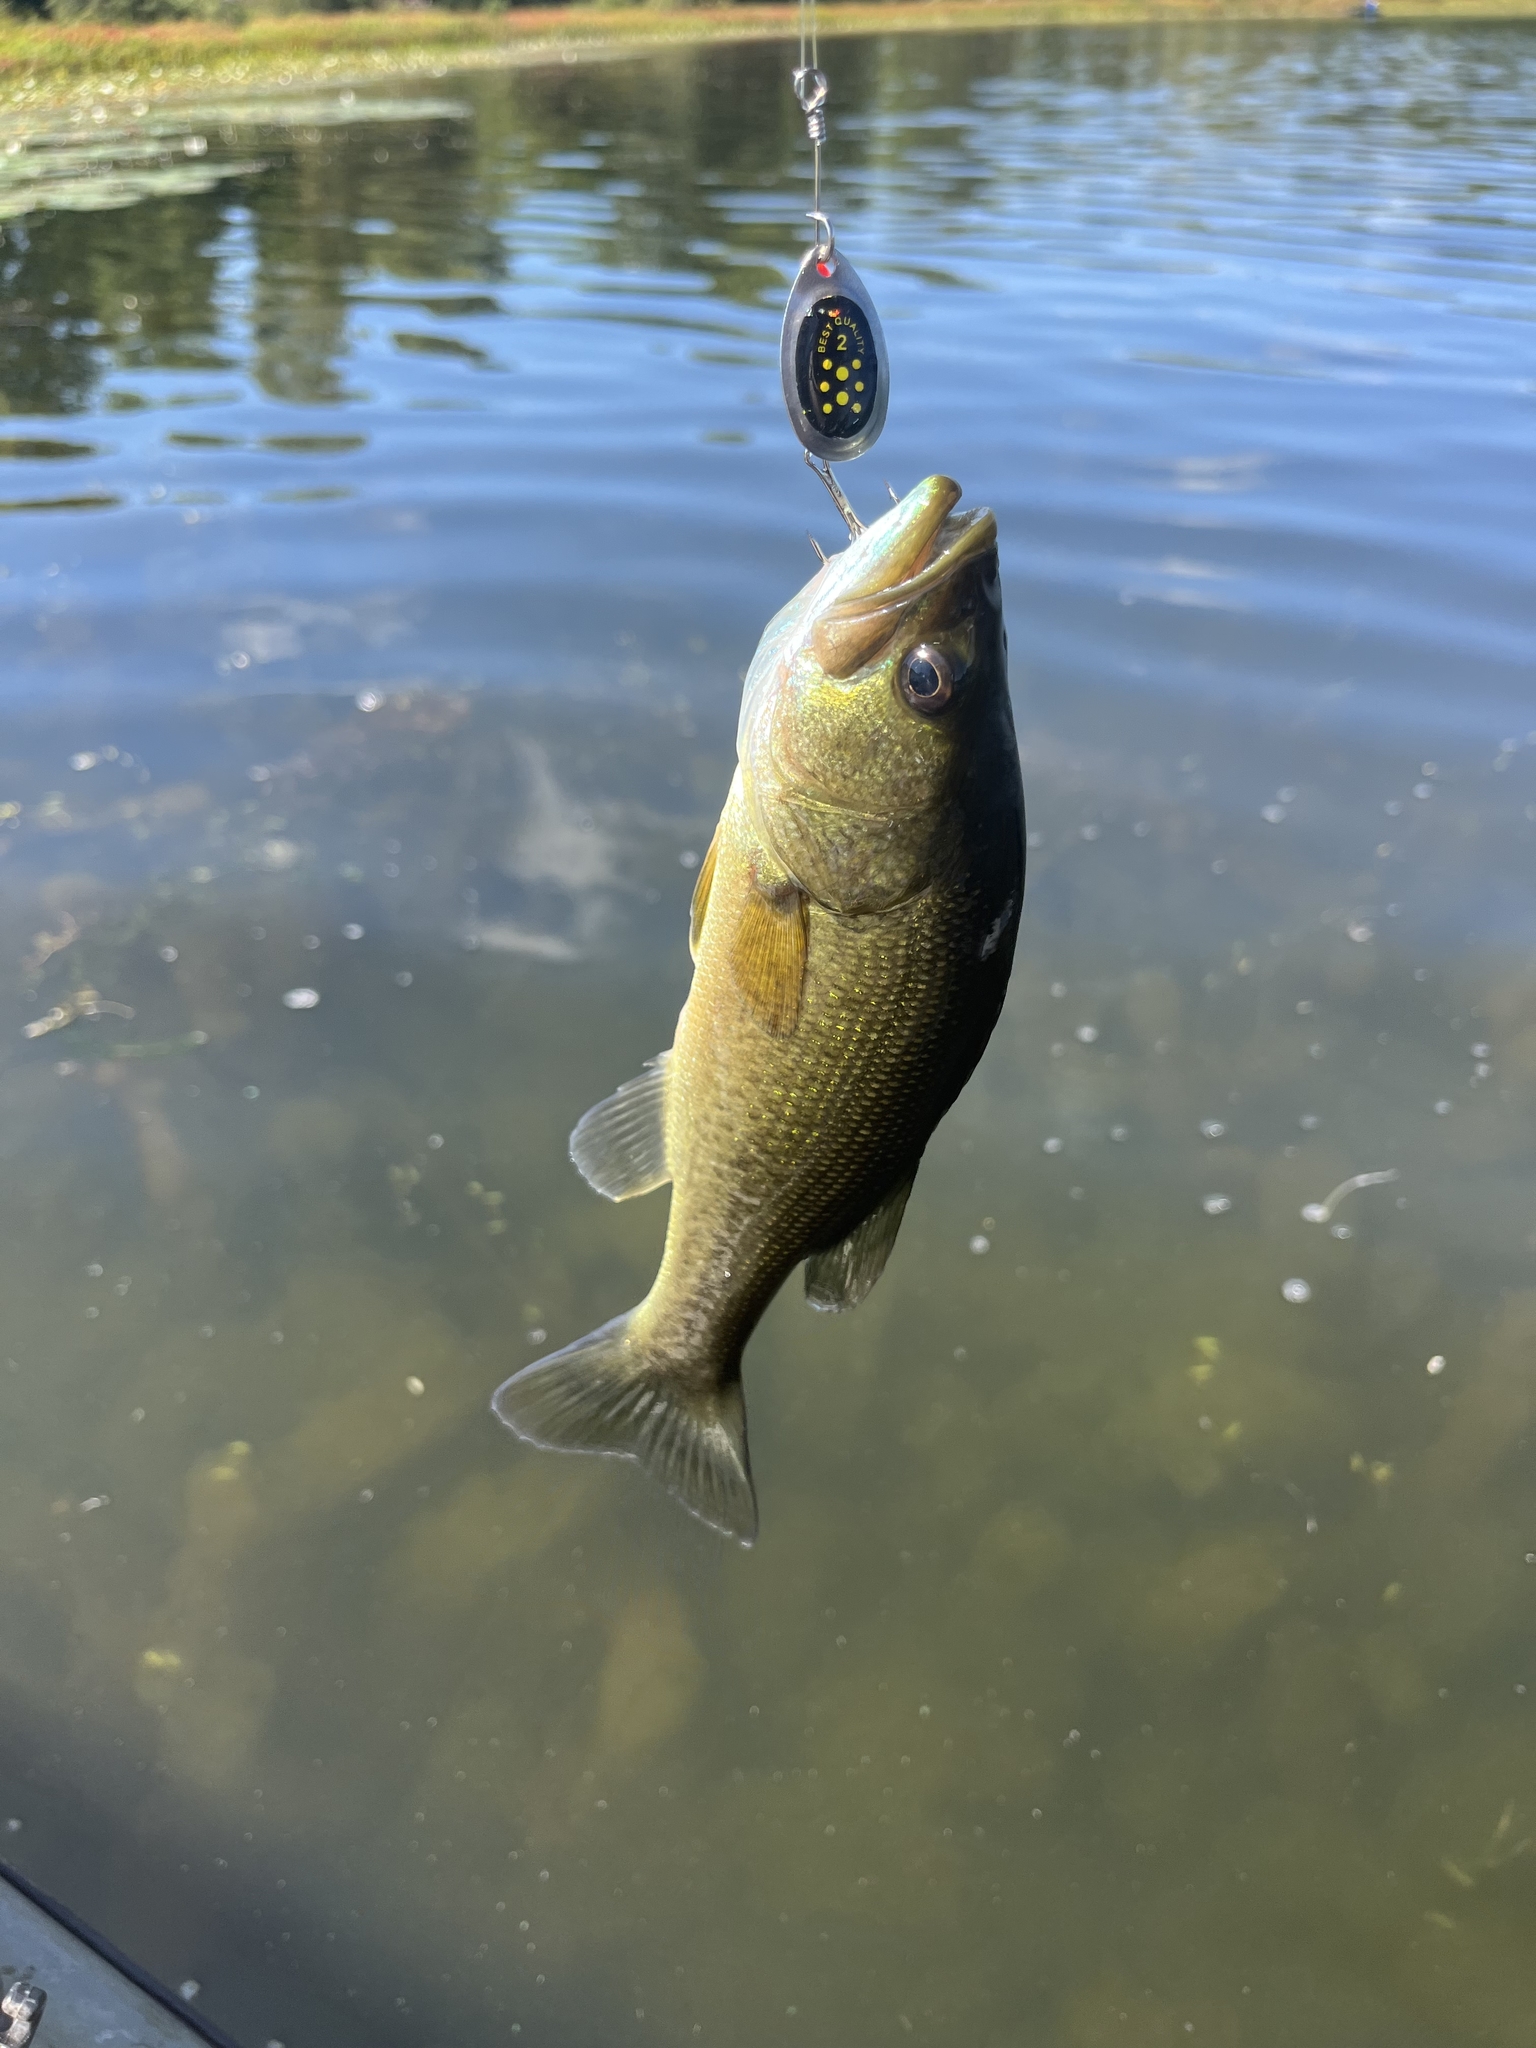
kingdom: Animalia
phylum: Chordata
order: Perciformes
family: Centrarchidae
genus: Micropterus
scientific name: Micropterus
